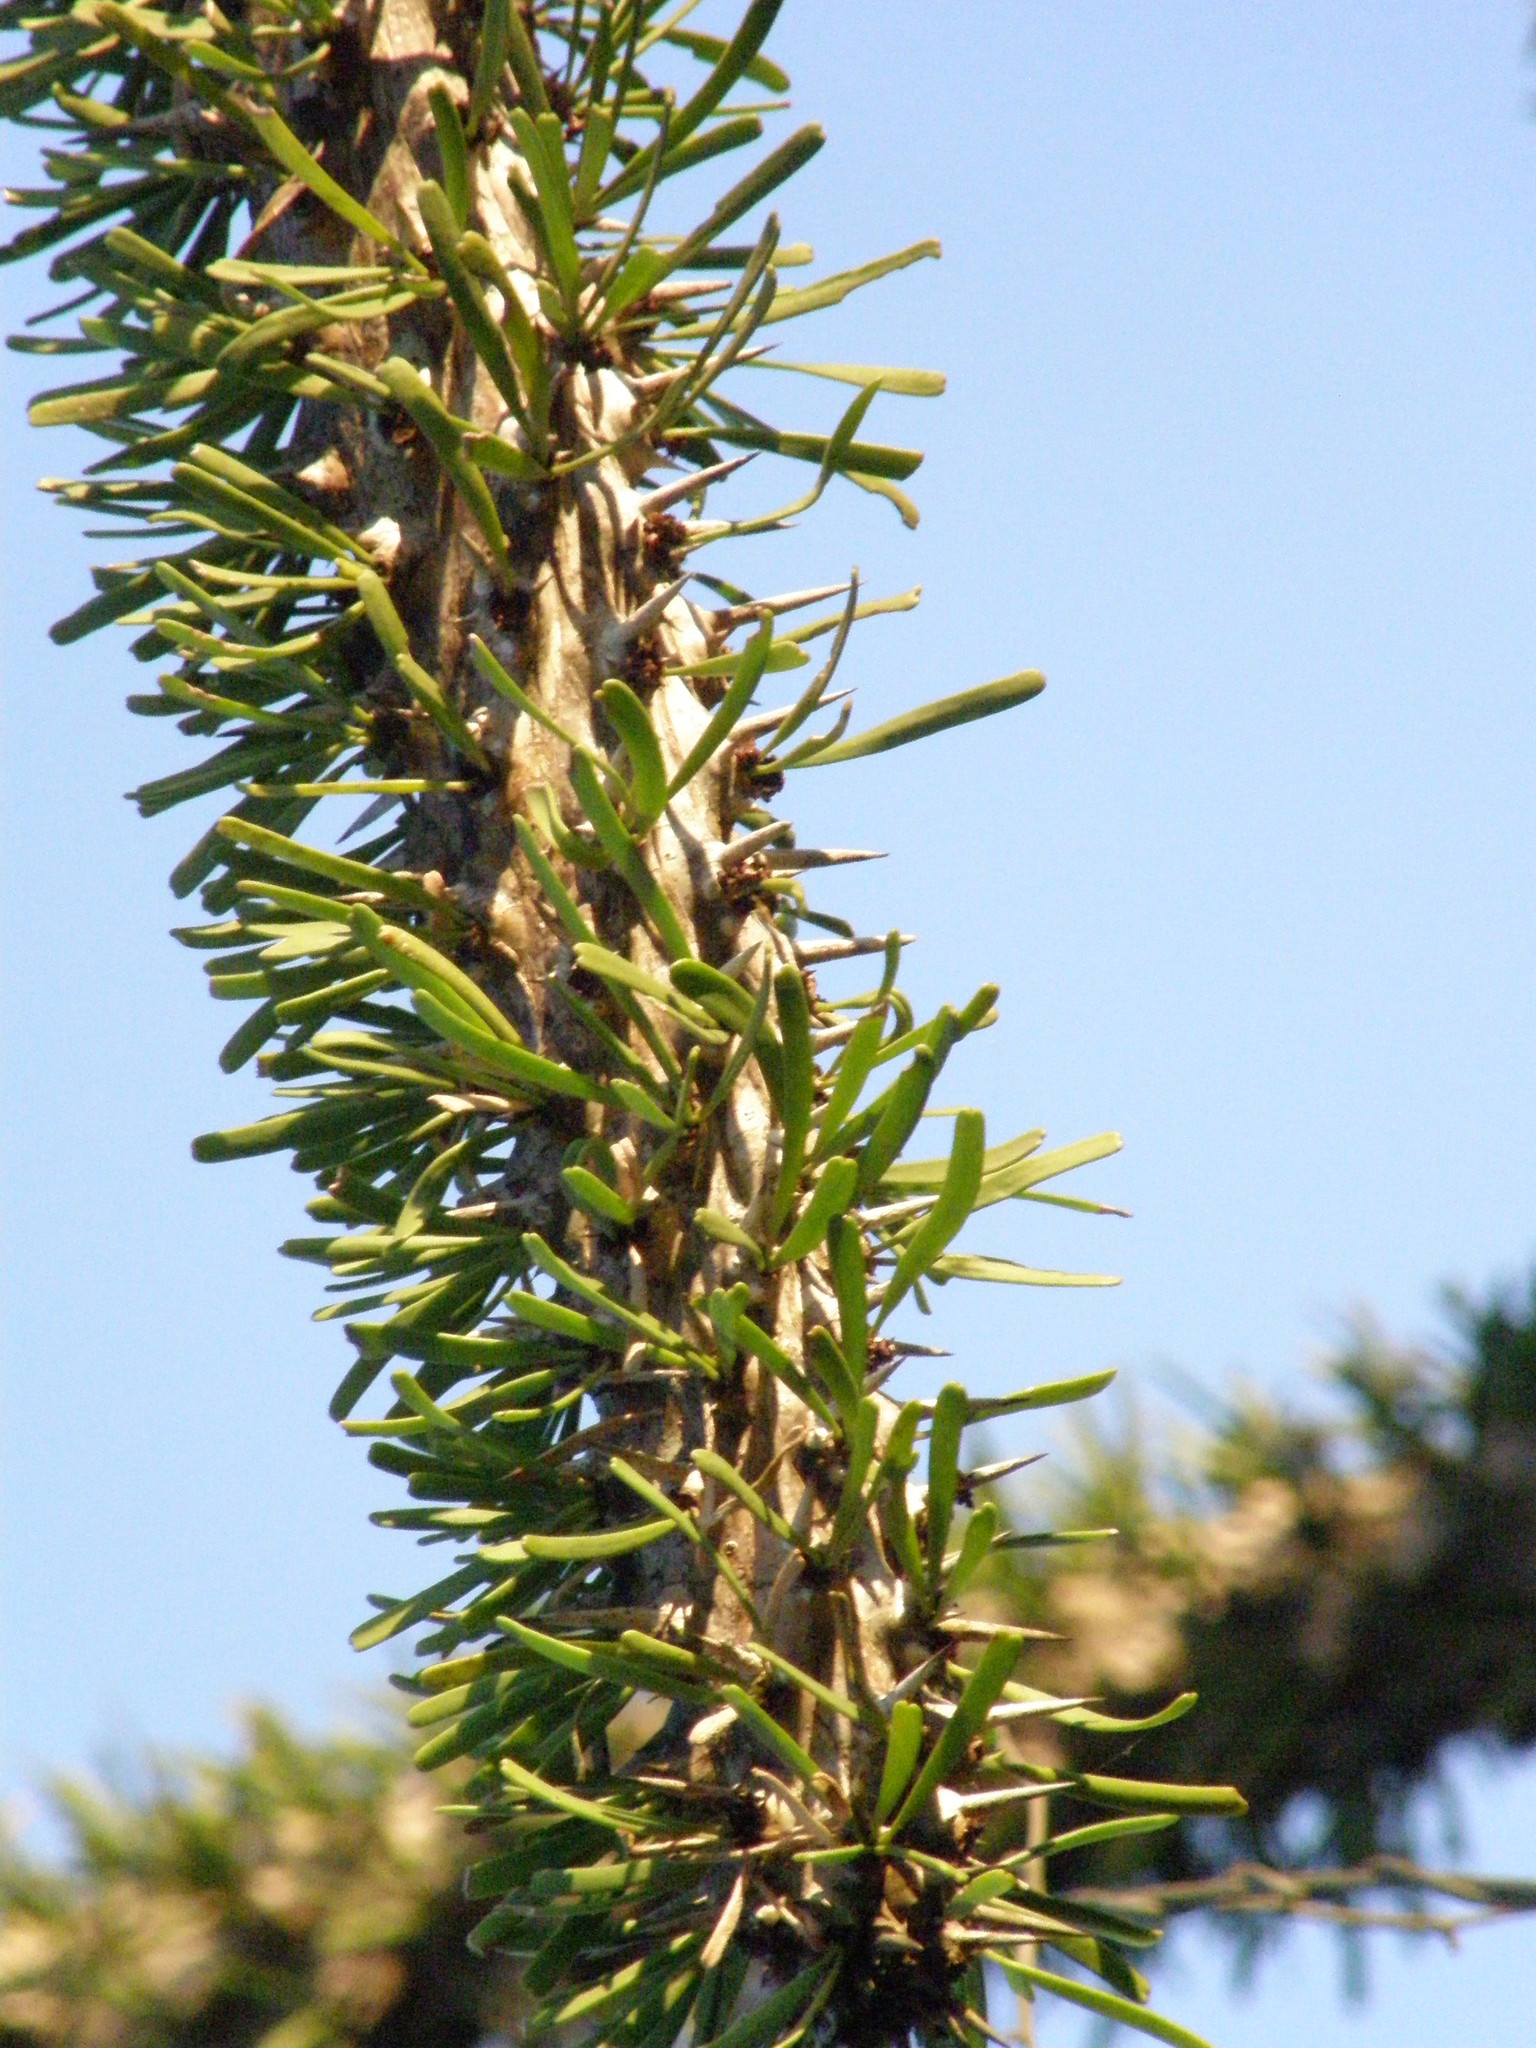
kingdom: Plantae
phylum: Tracheophyta
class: Magnoliopsida
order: Caryophyllales
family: Didiereaceae
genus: Didierea
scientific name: Didierea madagascariensis
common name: Octopus-tree
